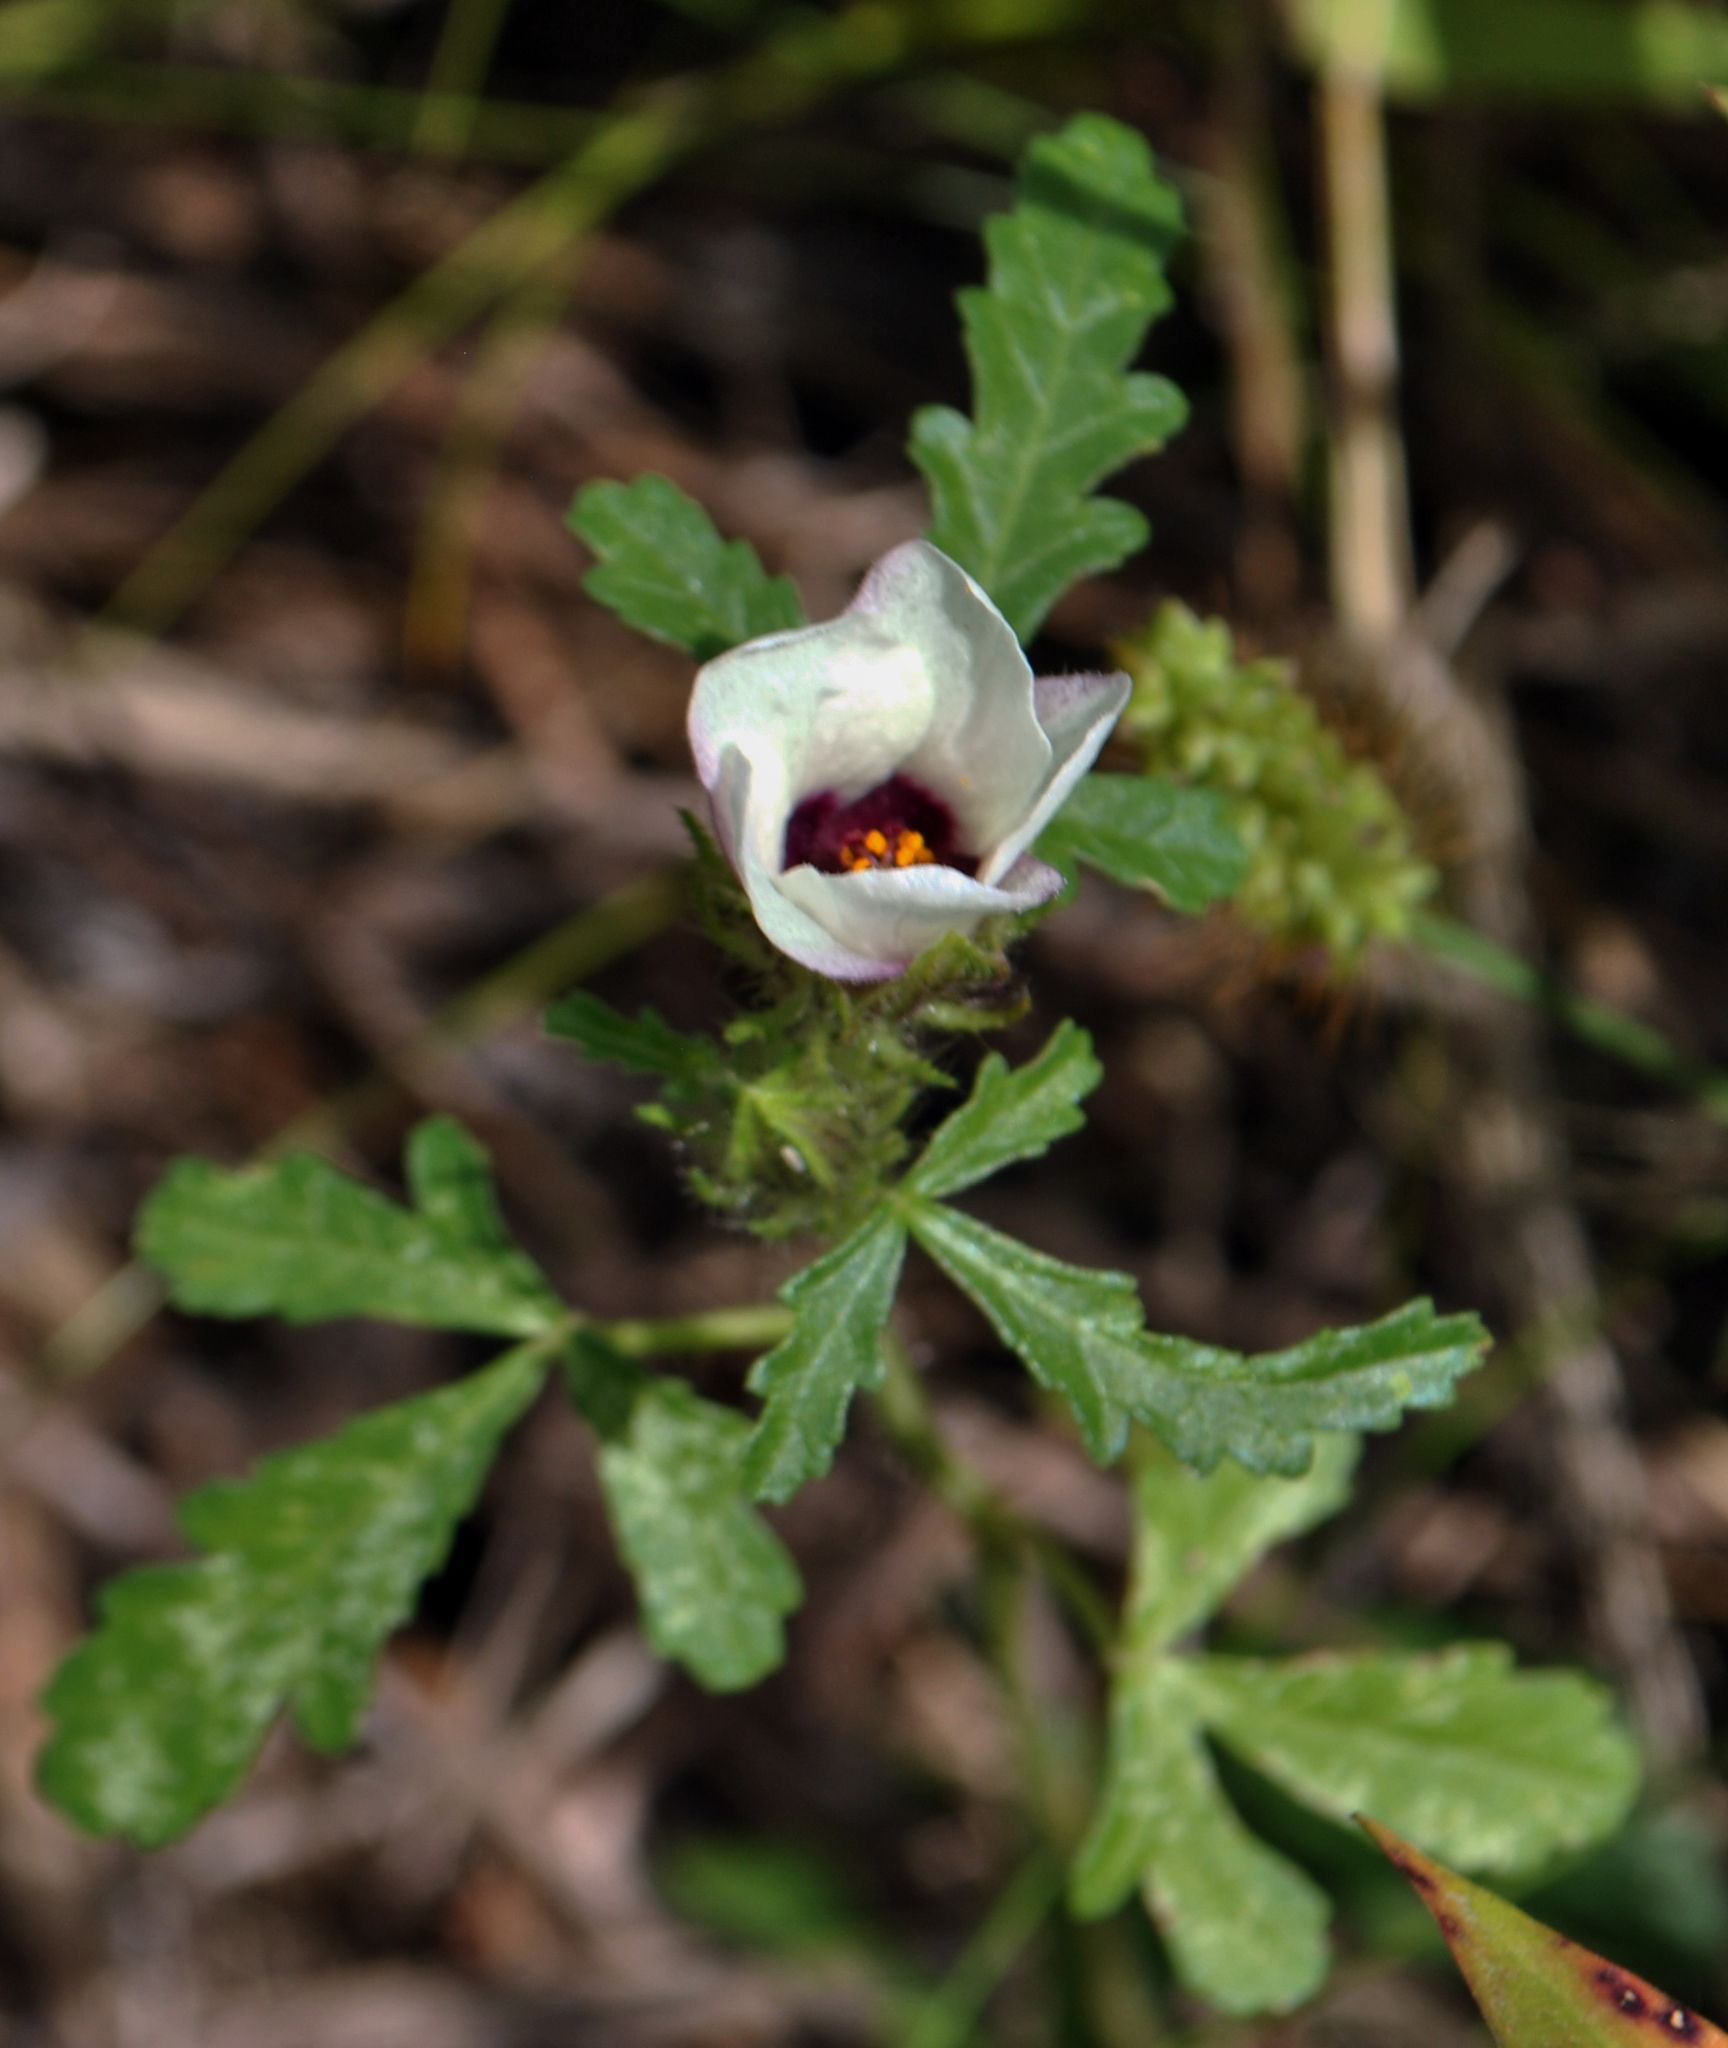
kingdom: Plantae
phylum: Tracheophyta
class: Magnoliopsida
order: Malvales
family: Malvaceae
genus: Hibiscus
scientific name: Hibiscus trionum
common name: Bladder ketmia
